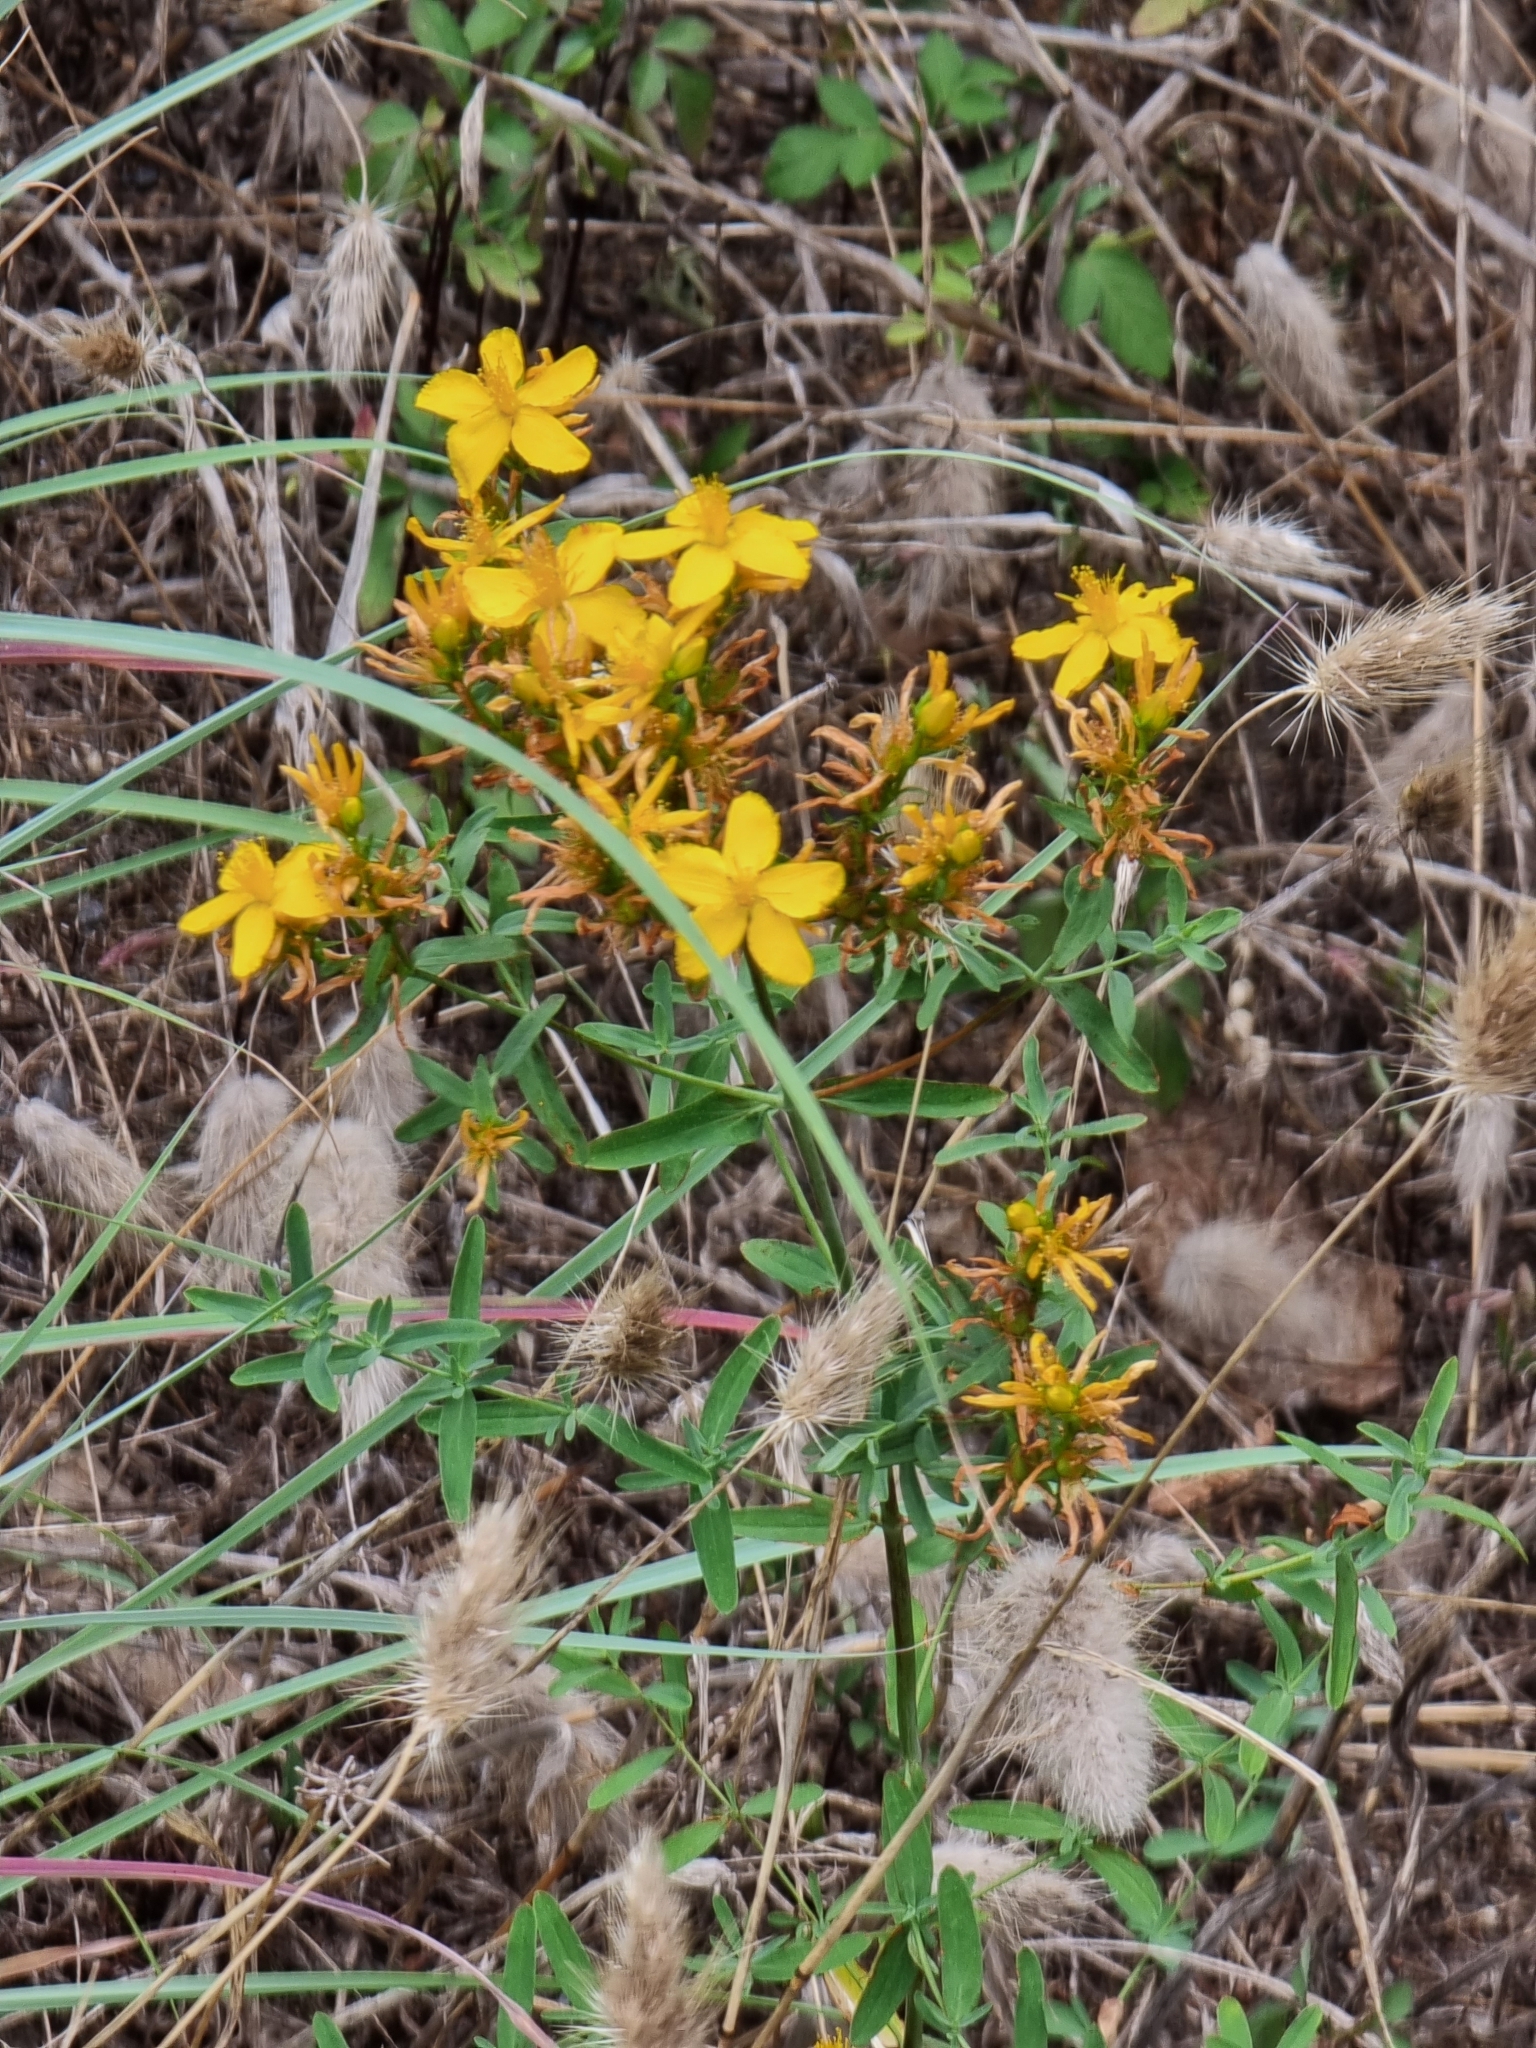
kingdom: Plantae
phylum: Tracheophyta
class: Magnoliopsida
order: Malpighiales
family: Hypericaceae
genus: Hypericum
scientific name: Hypericum perforatum
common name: Common st. johnswort
